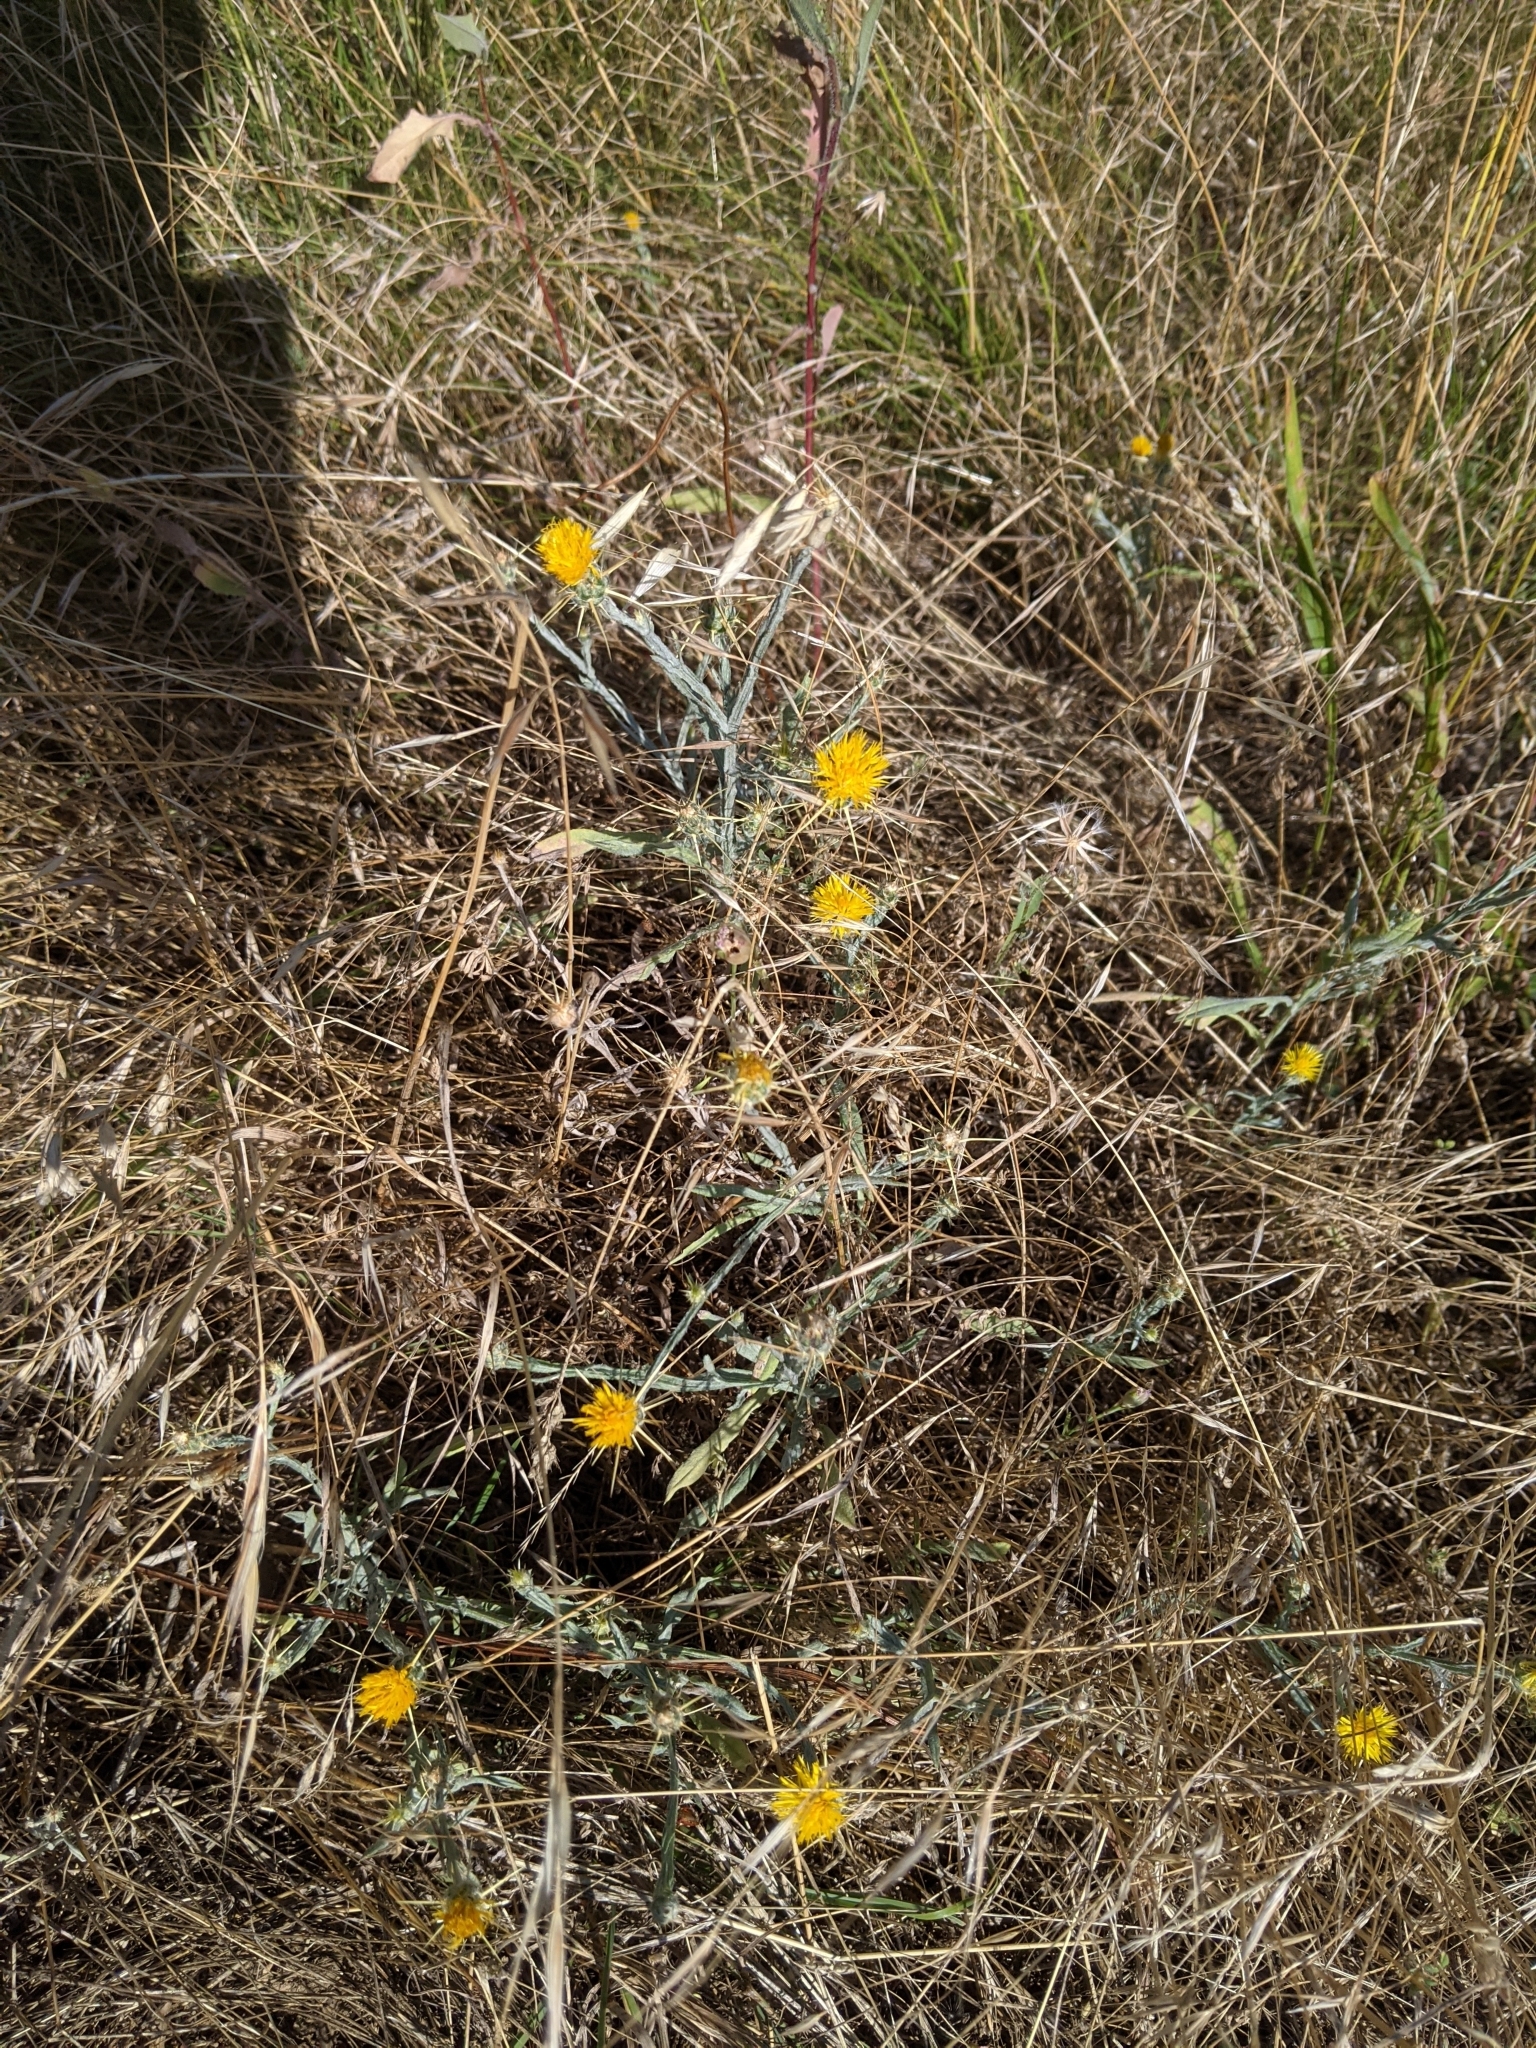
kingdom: Plantae
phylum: Tracheophyta
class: Magnoliopsida
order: Asterales
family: Asteraceae
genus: Centaurea
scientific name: Centaurea solstitialis
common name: Yellow star-thistle
